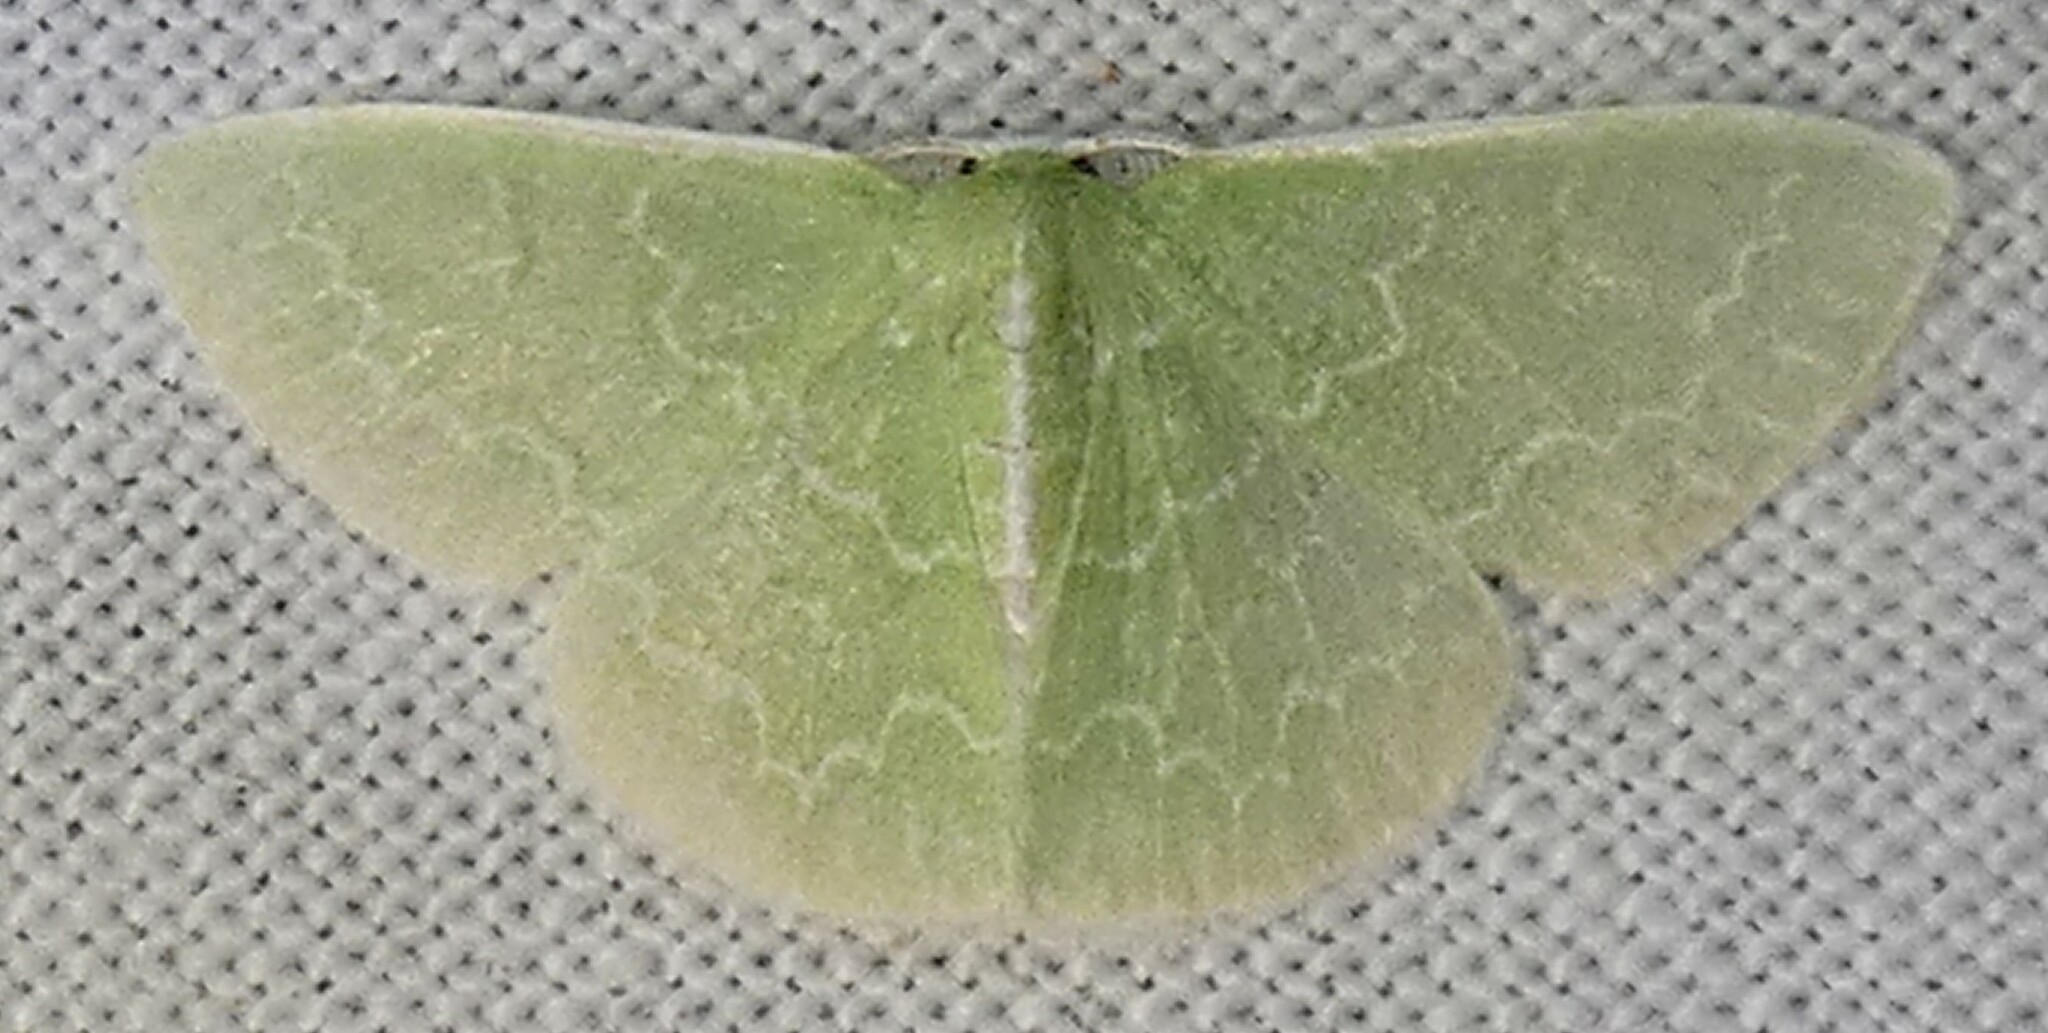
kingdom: Animalia
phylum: Arthropoda
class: Insecta
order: Lepidoptera
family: Geometridae
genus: Synchlora
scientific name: Synchlora frondaria
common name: Southern emerald
